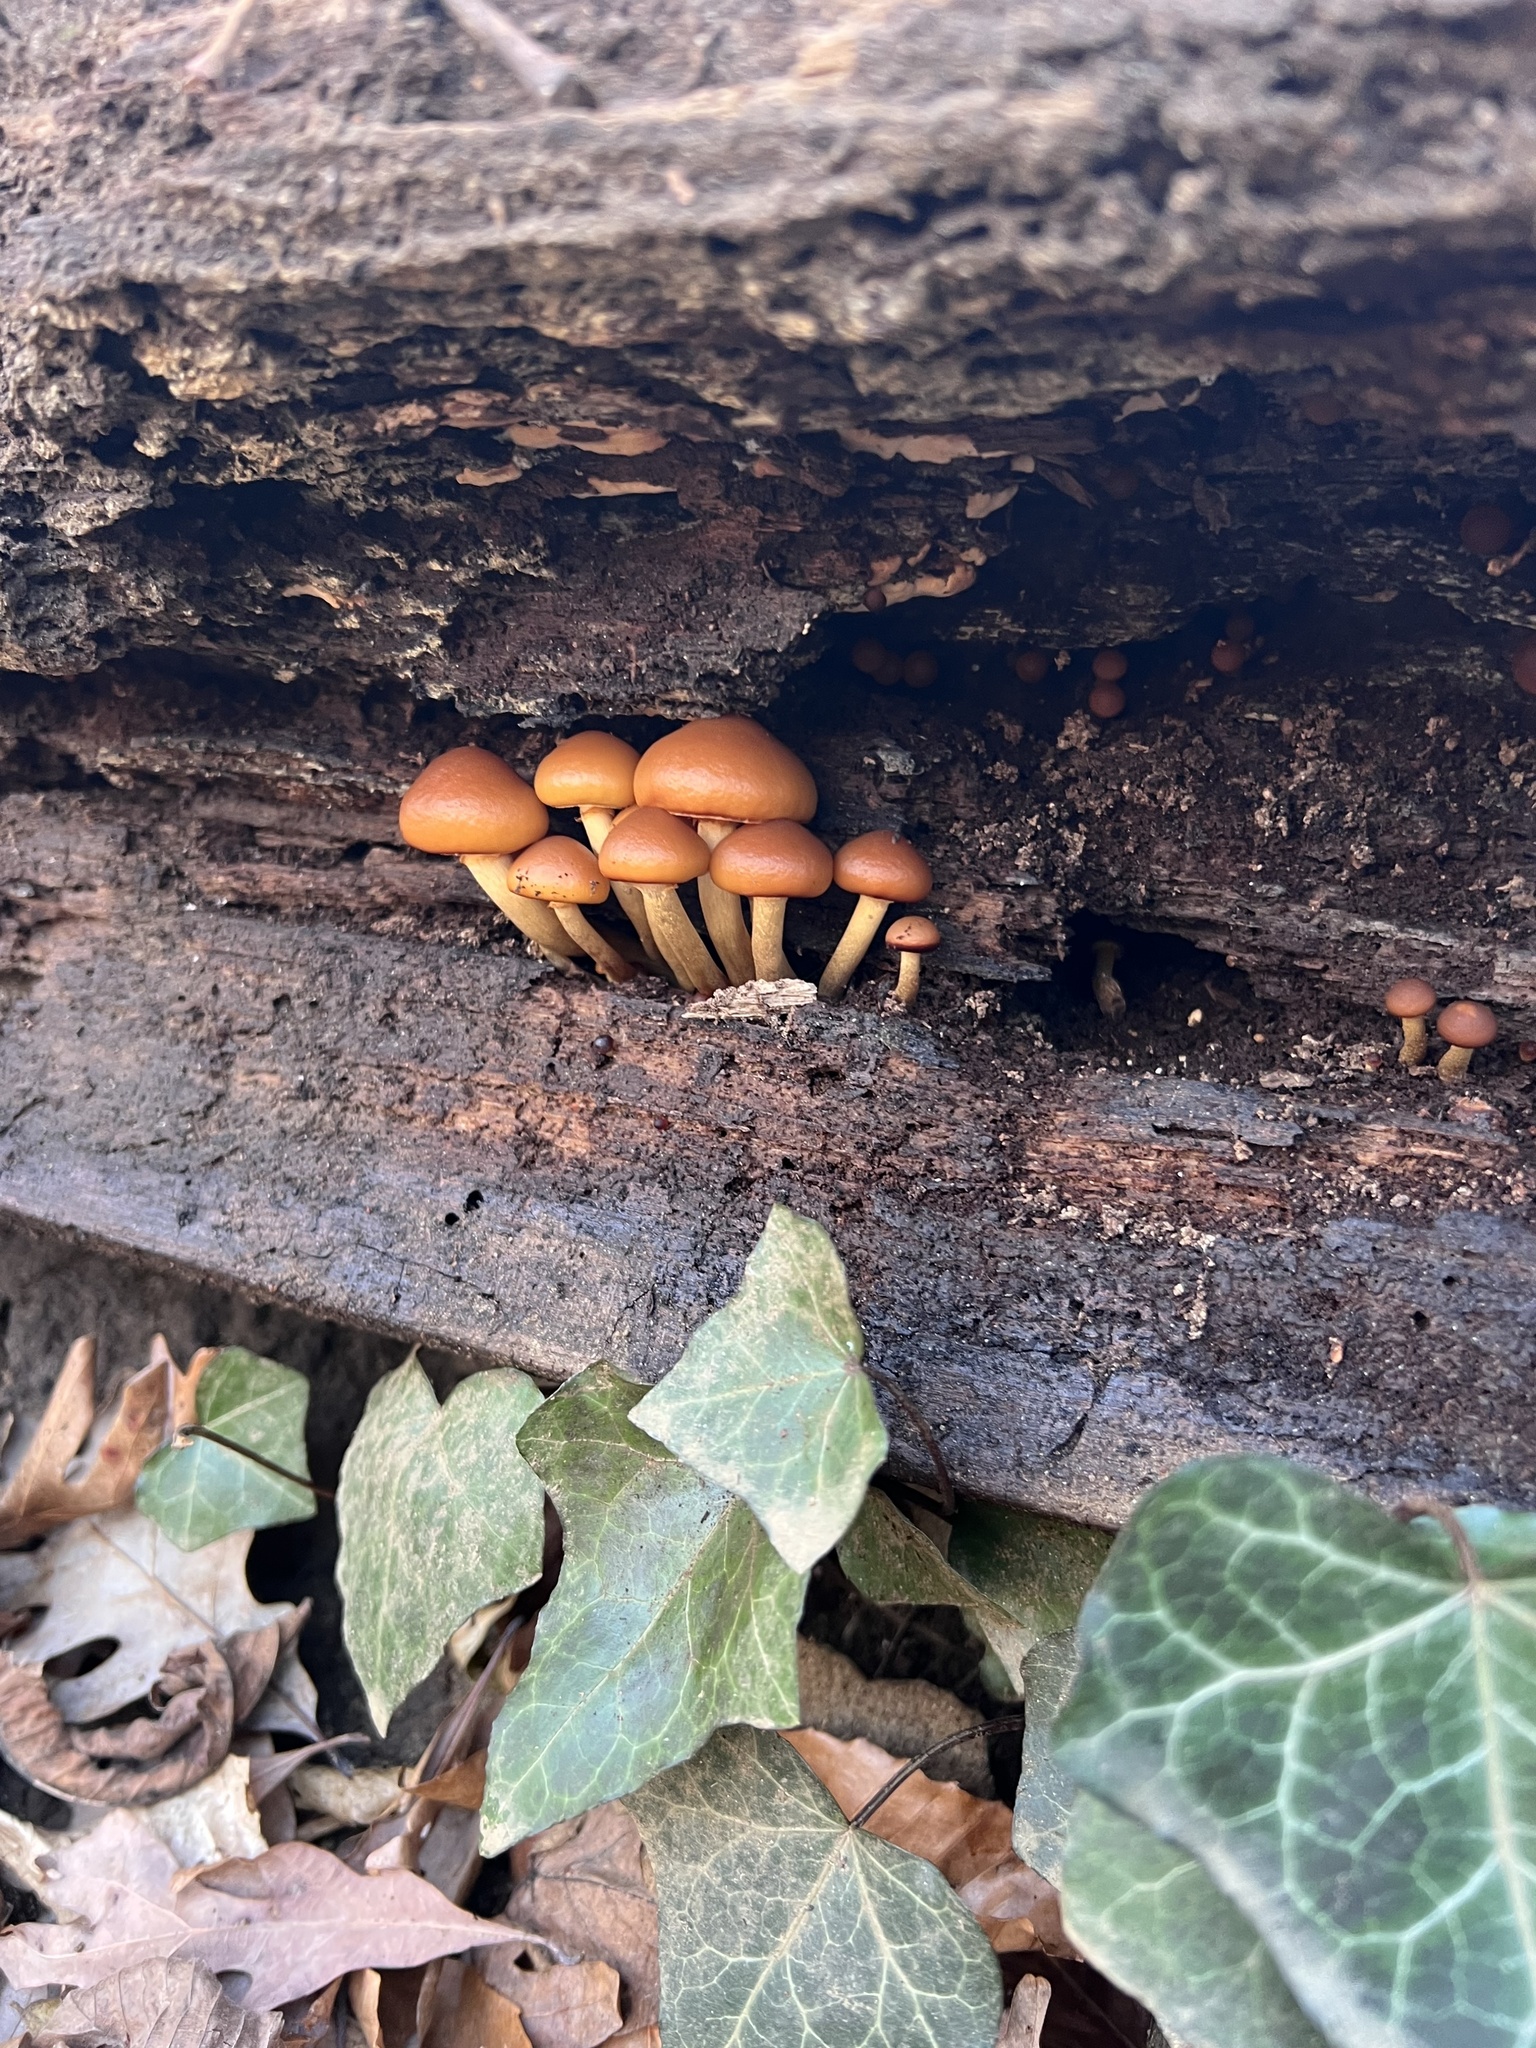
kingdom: Fungi
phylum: Basidiomycota
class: Agaricomycetes
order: Agaricales
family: Hymenogastraceae
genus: Galerina
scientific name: Galerina marginata
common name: Funeral bell
